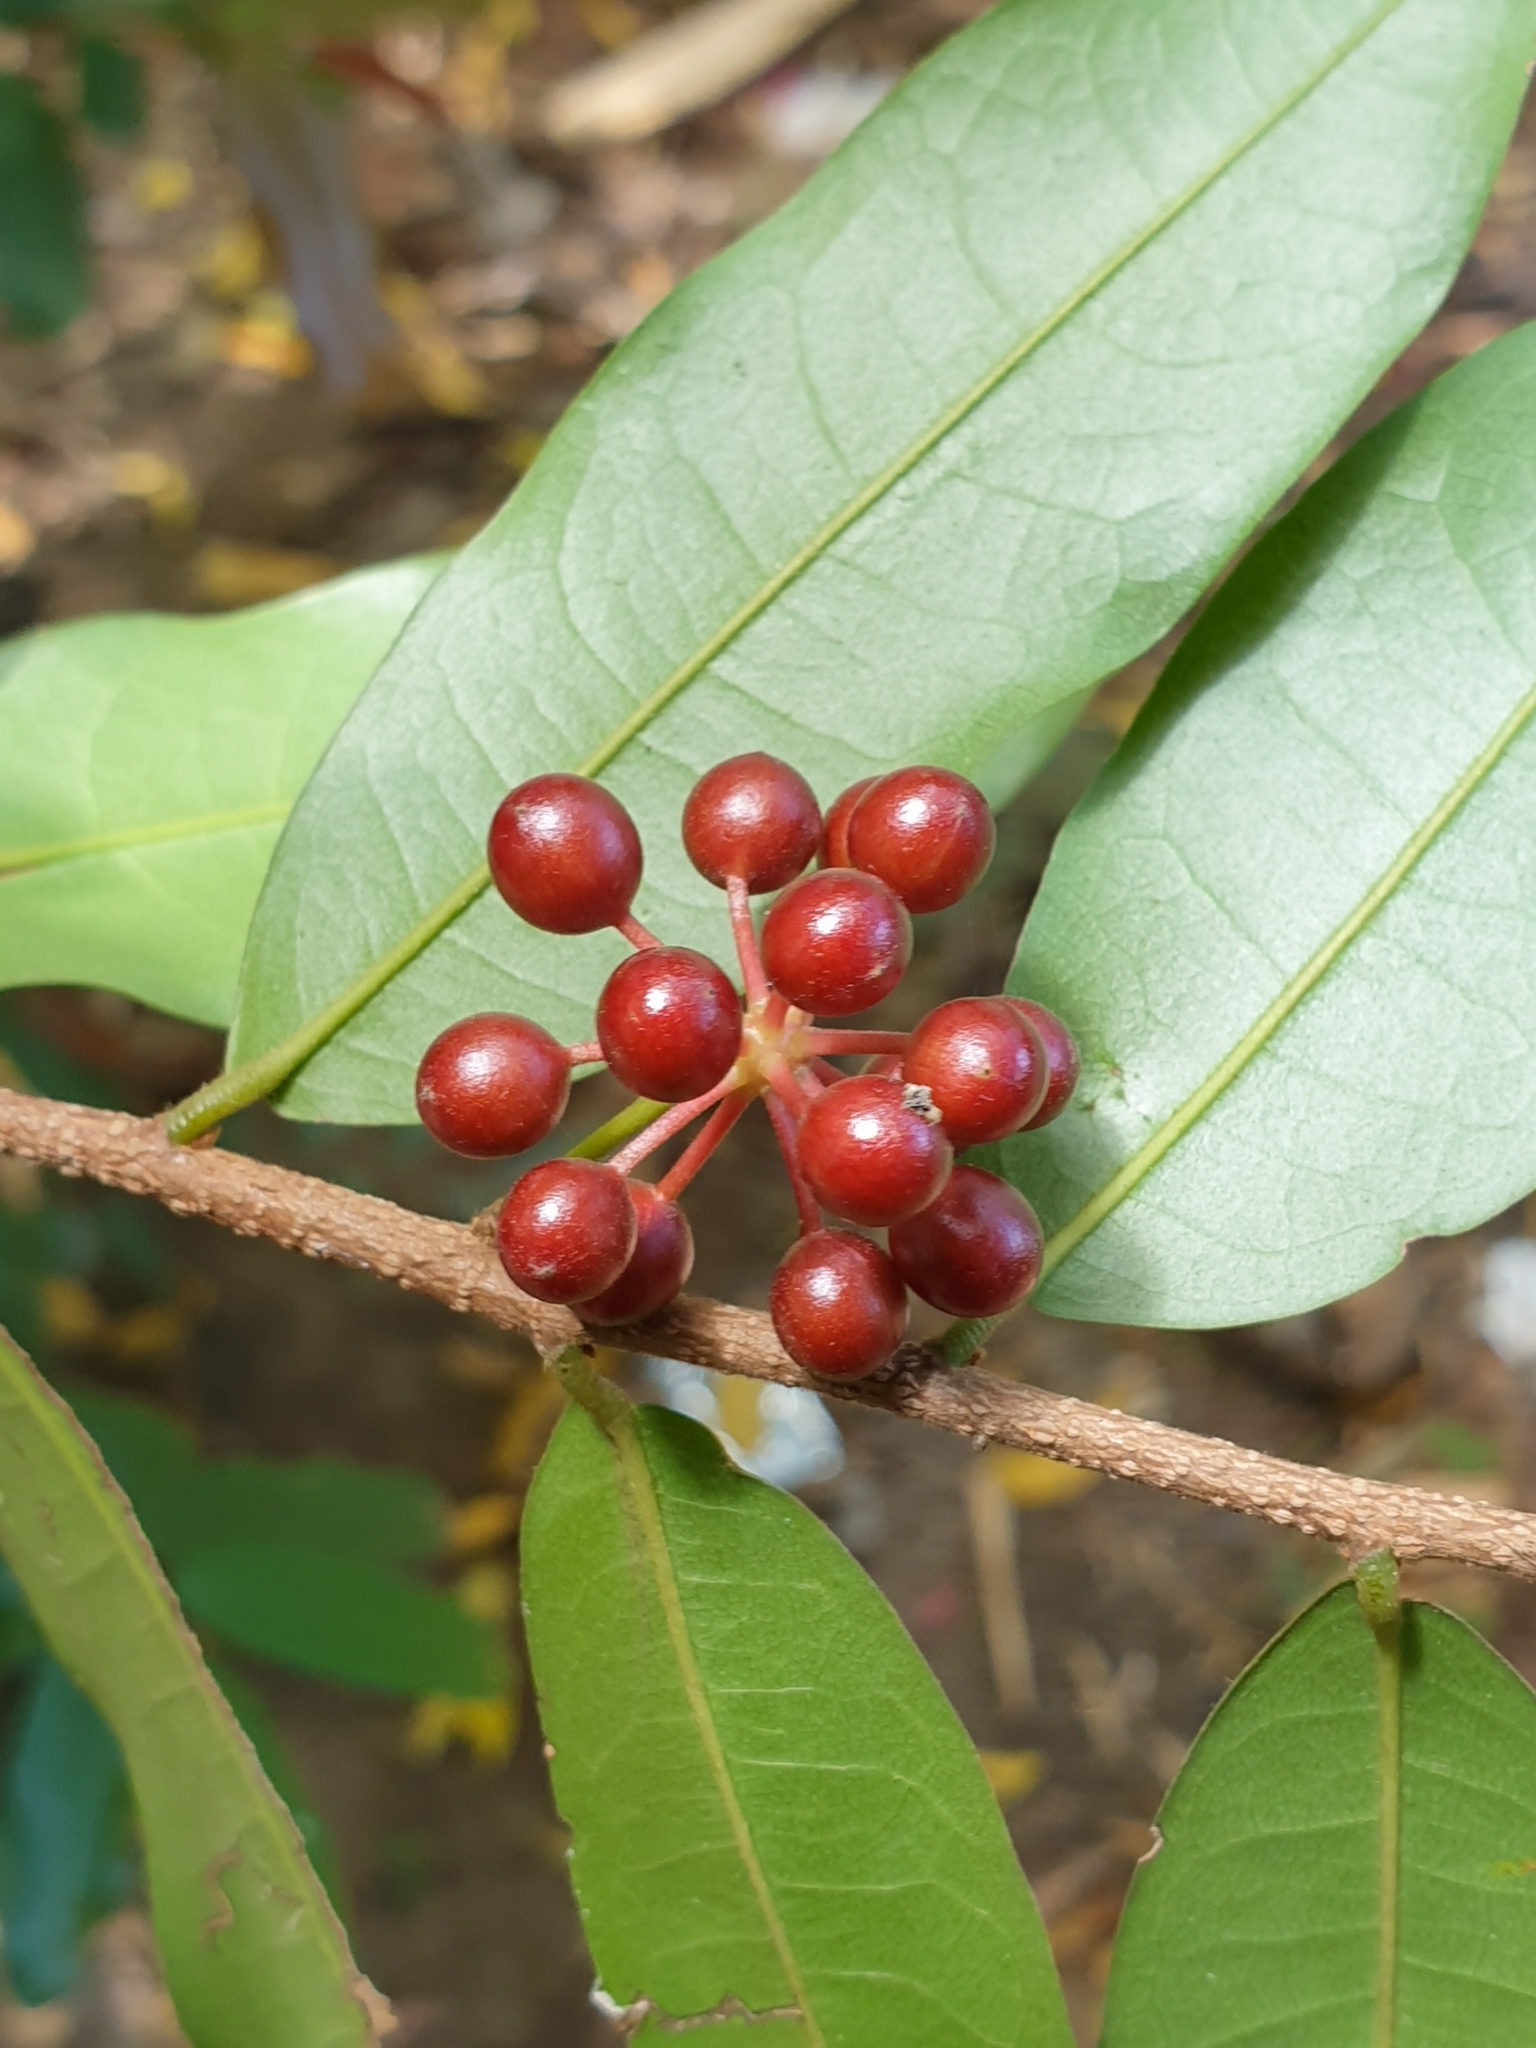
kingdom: Plantae
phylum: Tracheophyta
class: Magnoliopsida
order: Magnoliales
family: Annonaceae
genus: Polyalthia
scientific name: Polyalthia suberosa
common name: Polyalthia plant
